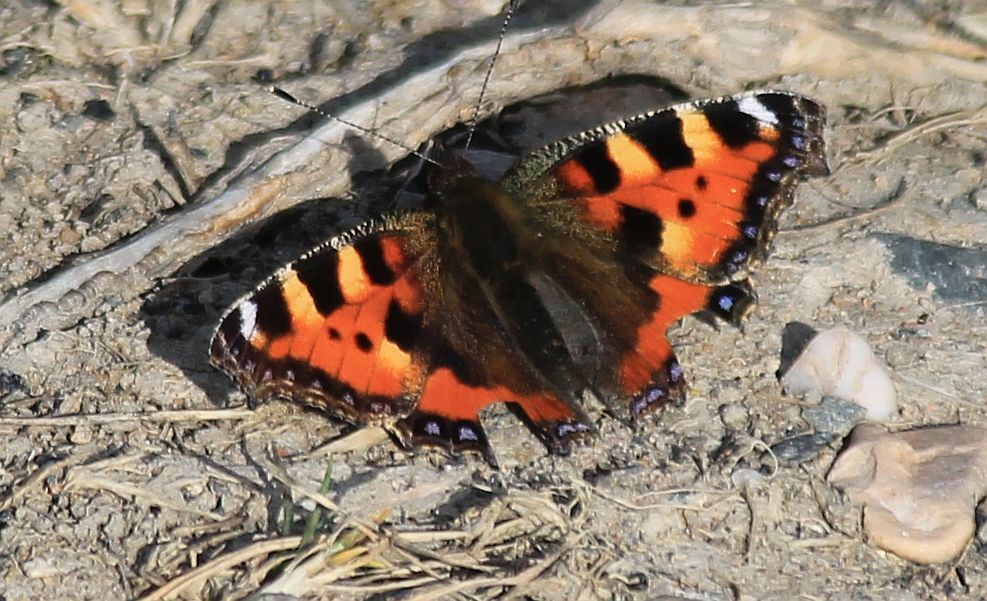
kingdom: Animalia
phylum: Arthropoda
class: Insecta
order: Lepidoptera
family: Nymphalidae
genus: Aglais
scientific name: Aglais urticae
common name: Small tortoiseshell
